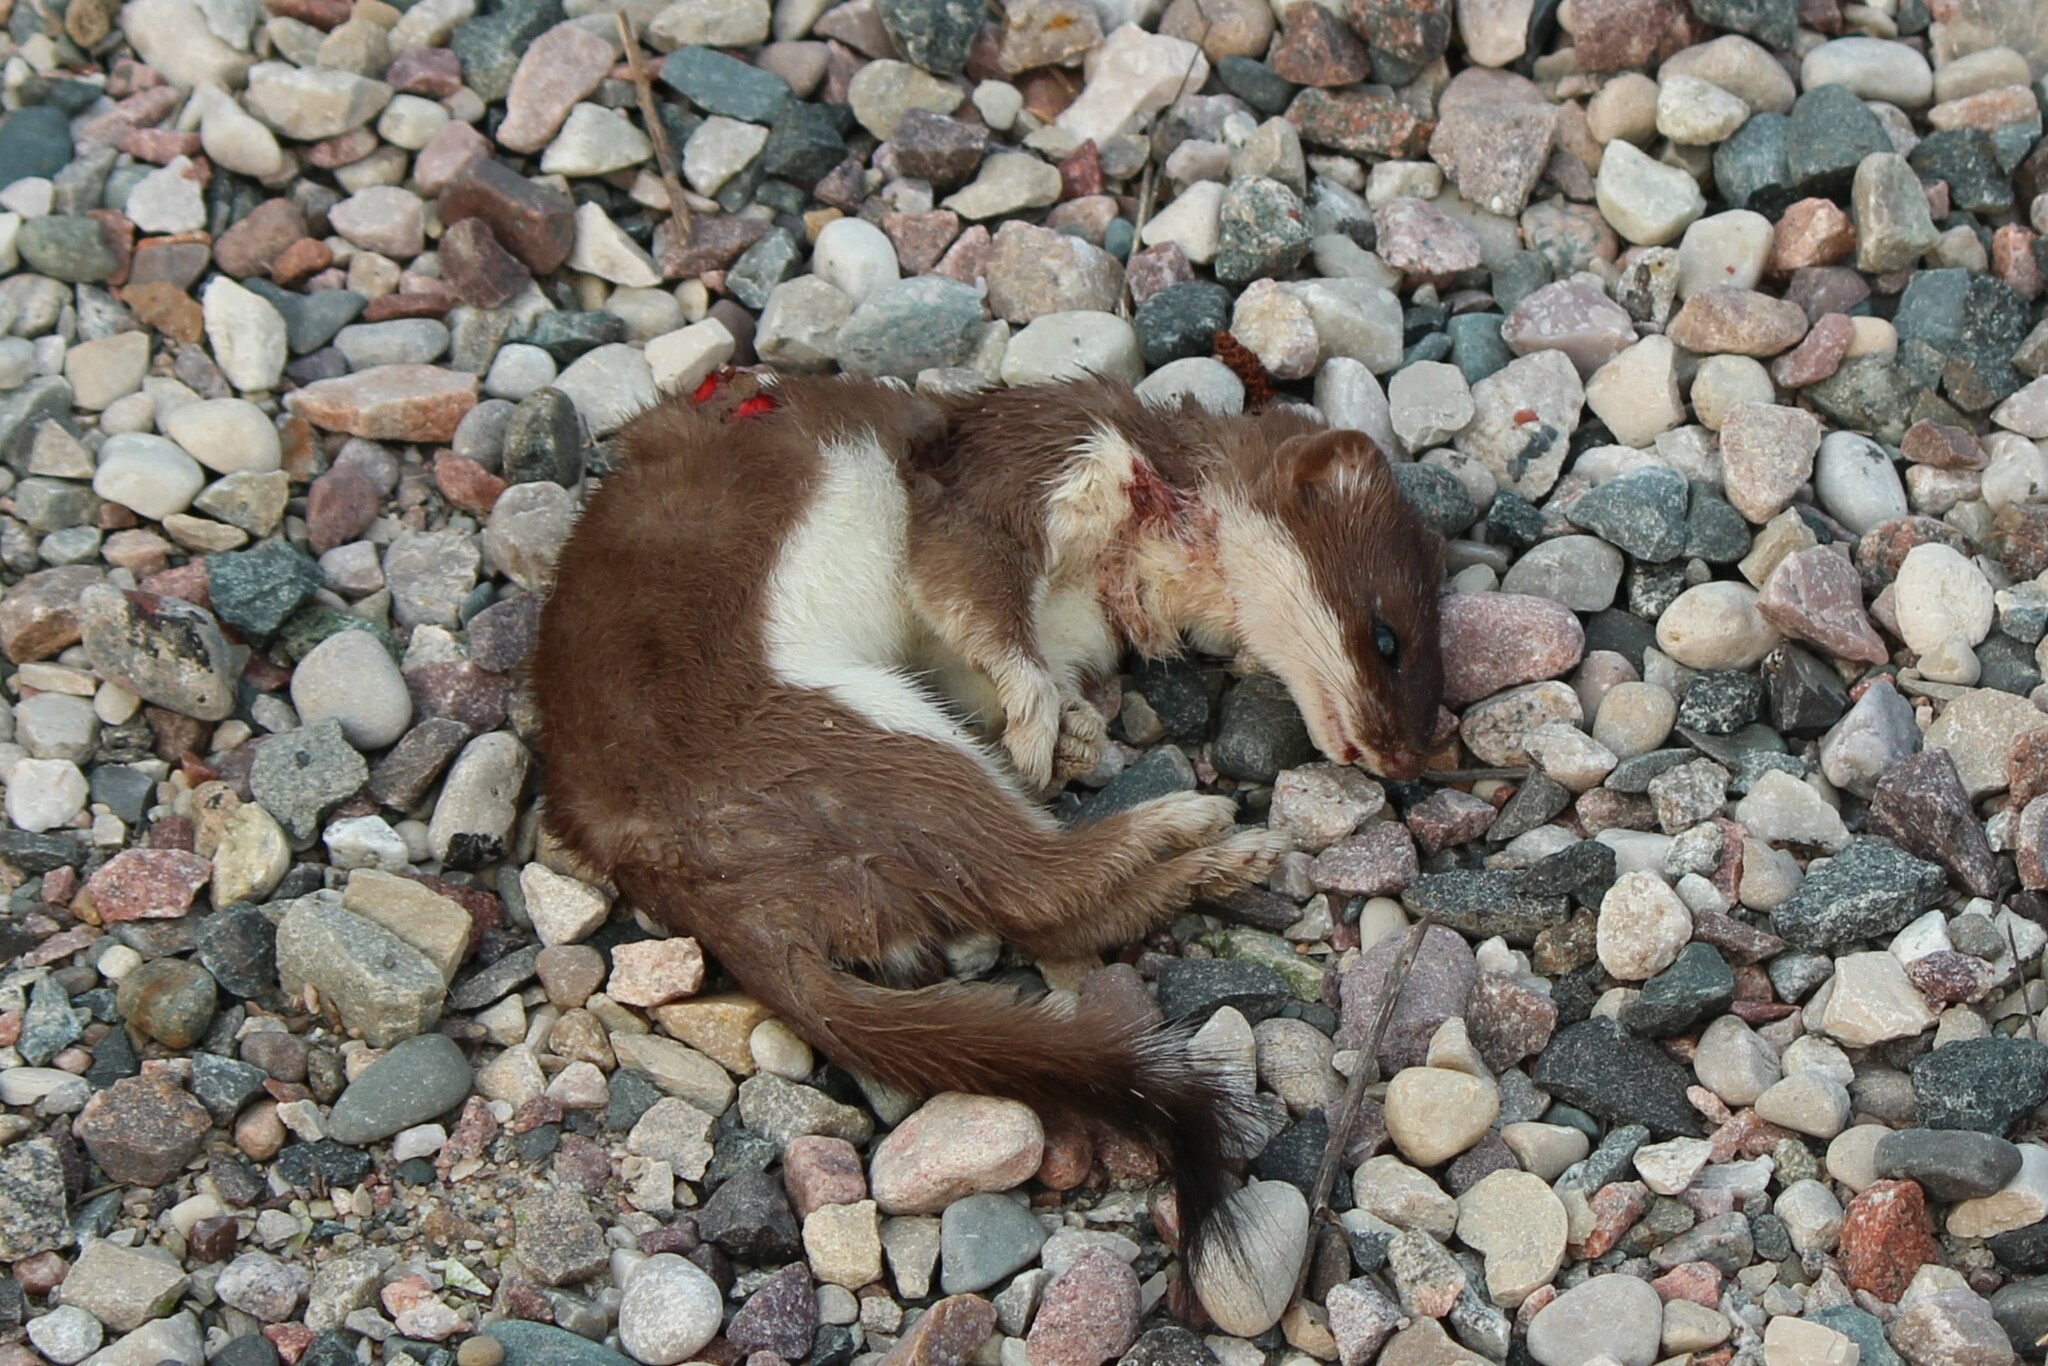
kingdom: Animalia
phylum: Chordata
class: Mammalia
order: Carnivora
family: Mustelidae
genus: Mustela
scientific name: Mustela erminea
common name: Stoat
